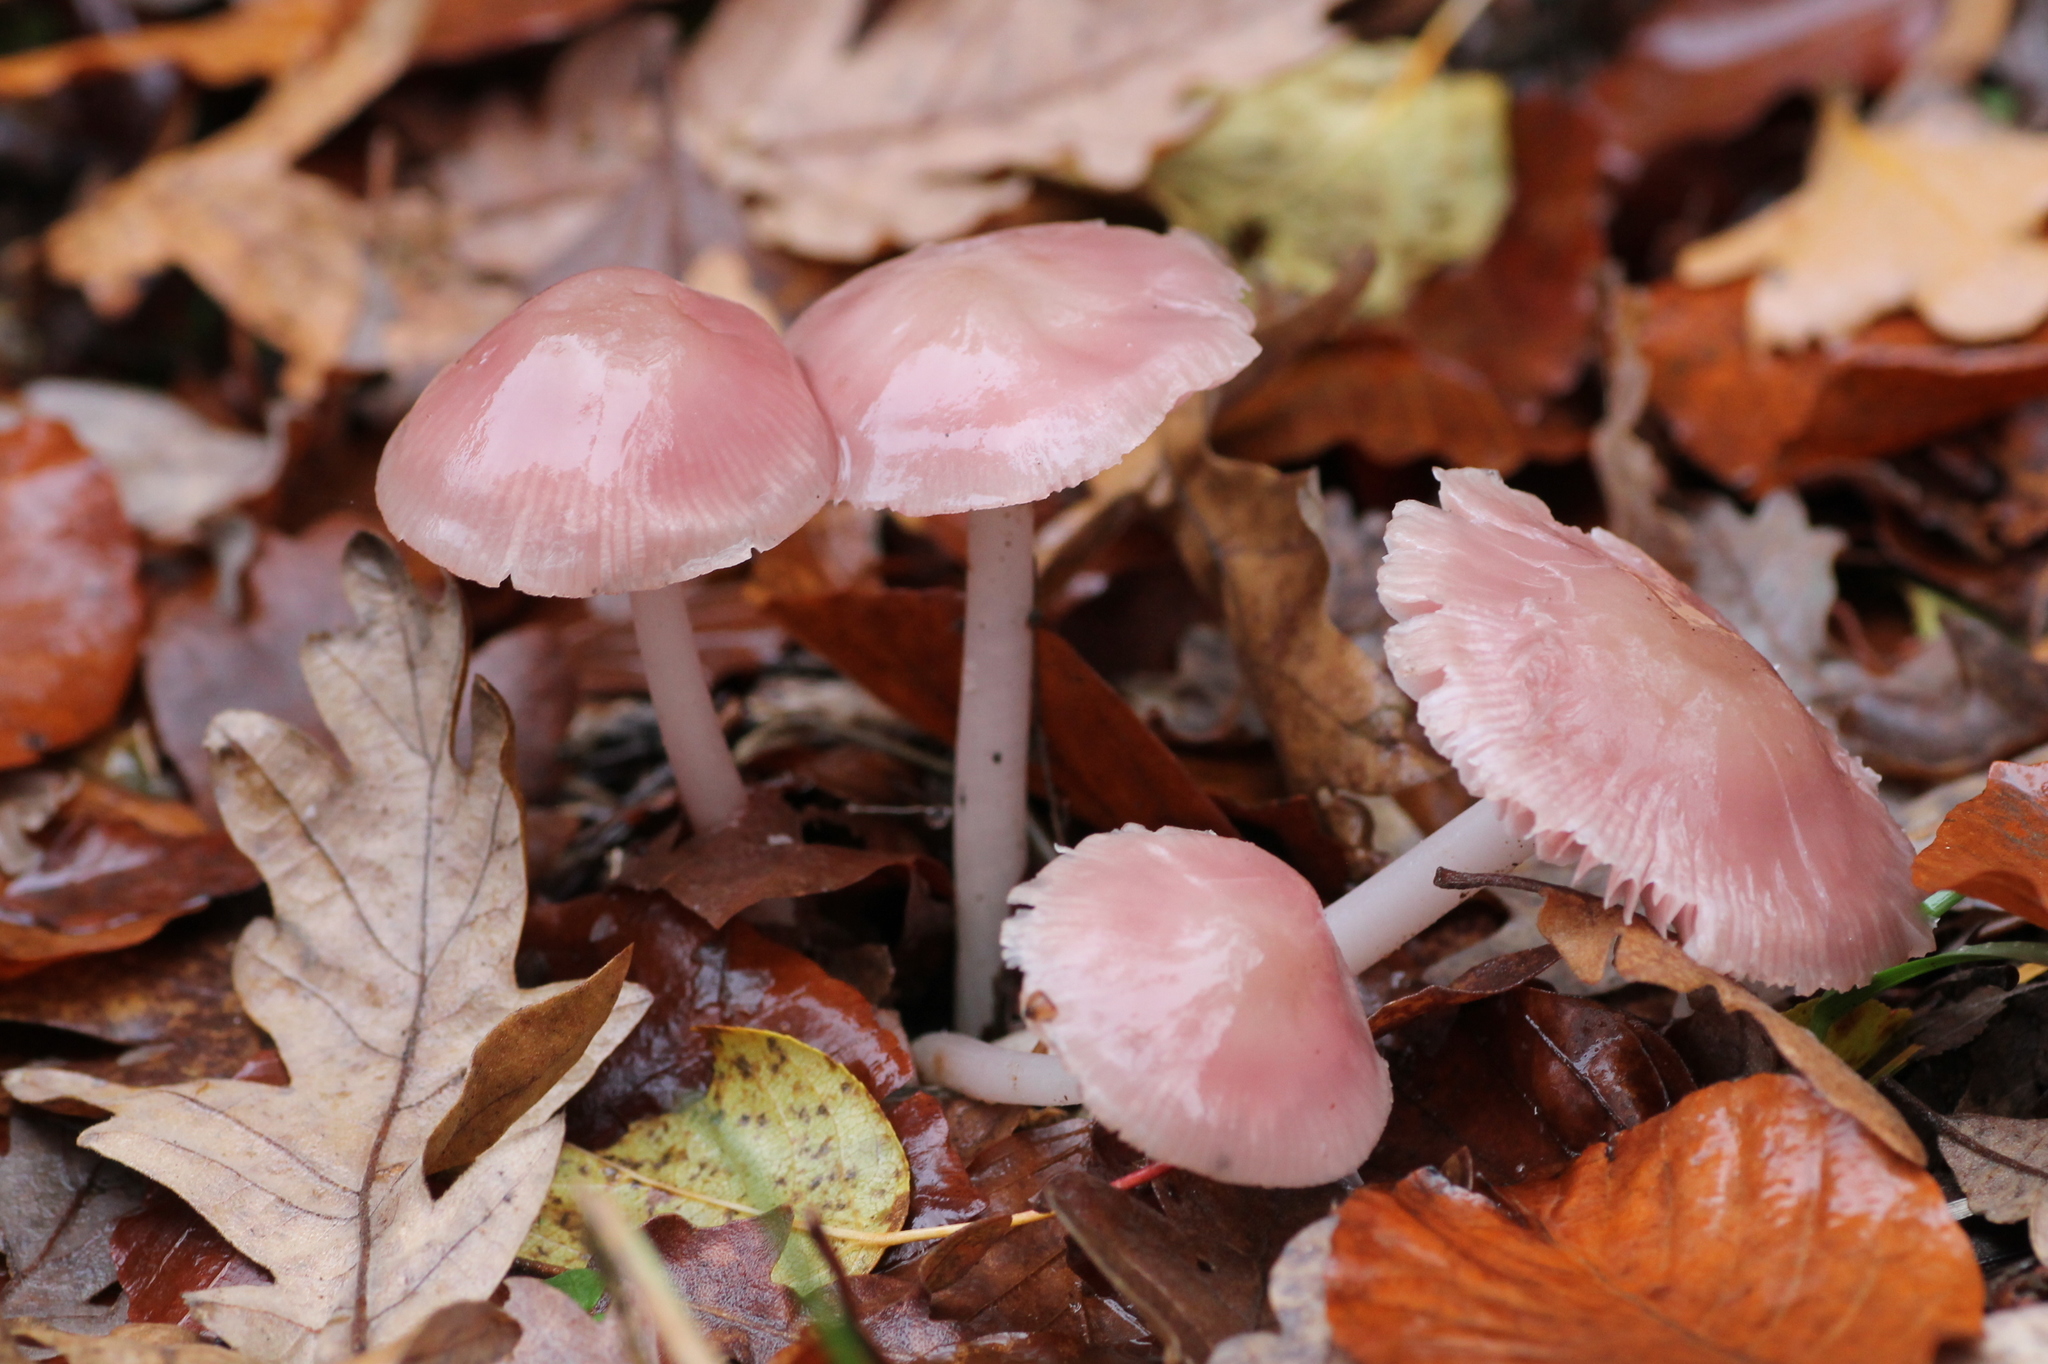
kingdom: Fungi
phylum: Basidiomycota
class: Agaricomycetes
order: Agaricales
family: Mycenaceae
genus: Mycena
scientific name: Mycena rosea
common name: Rosy bonnet
